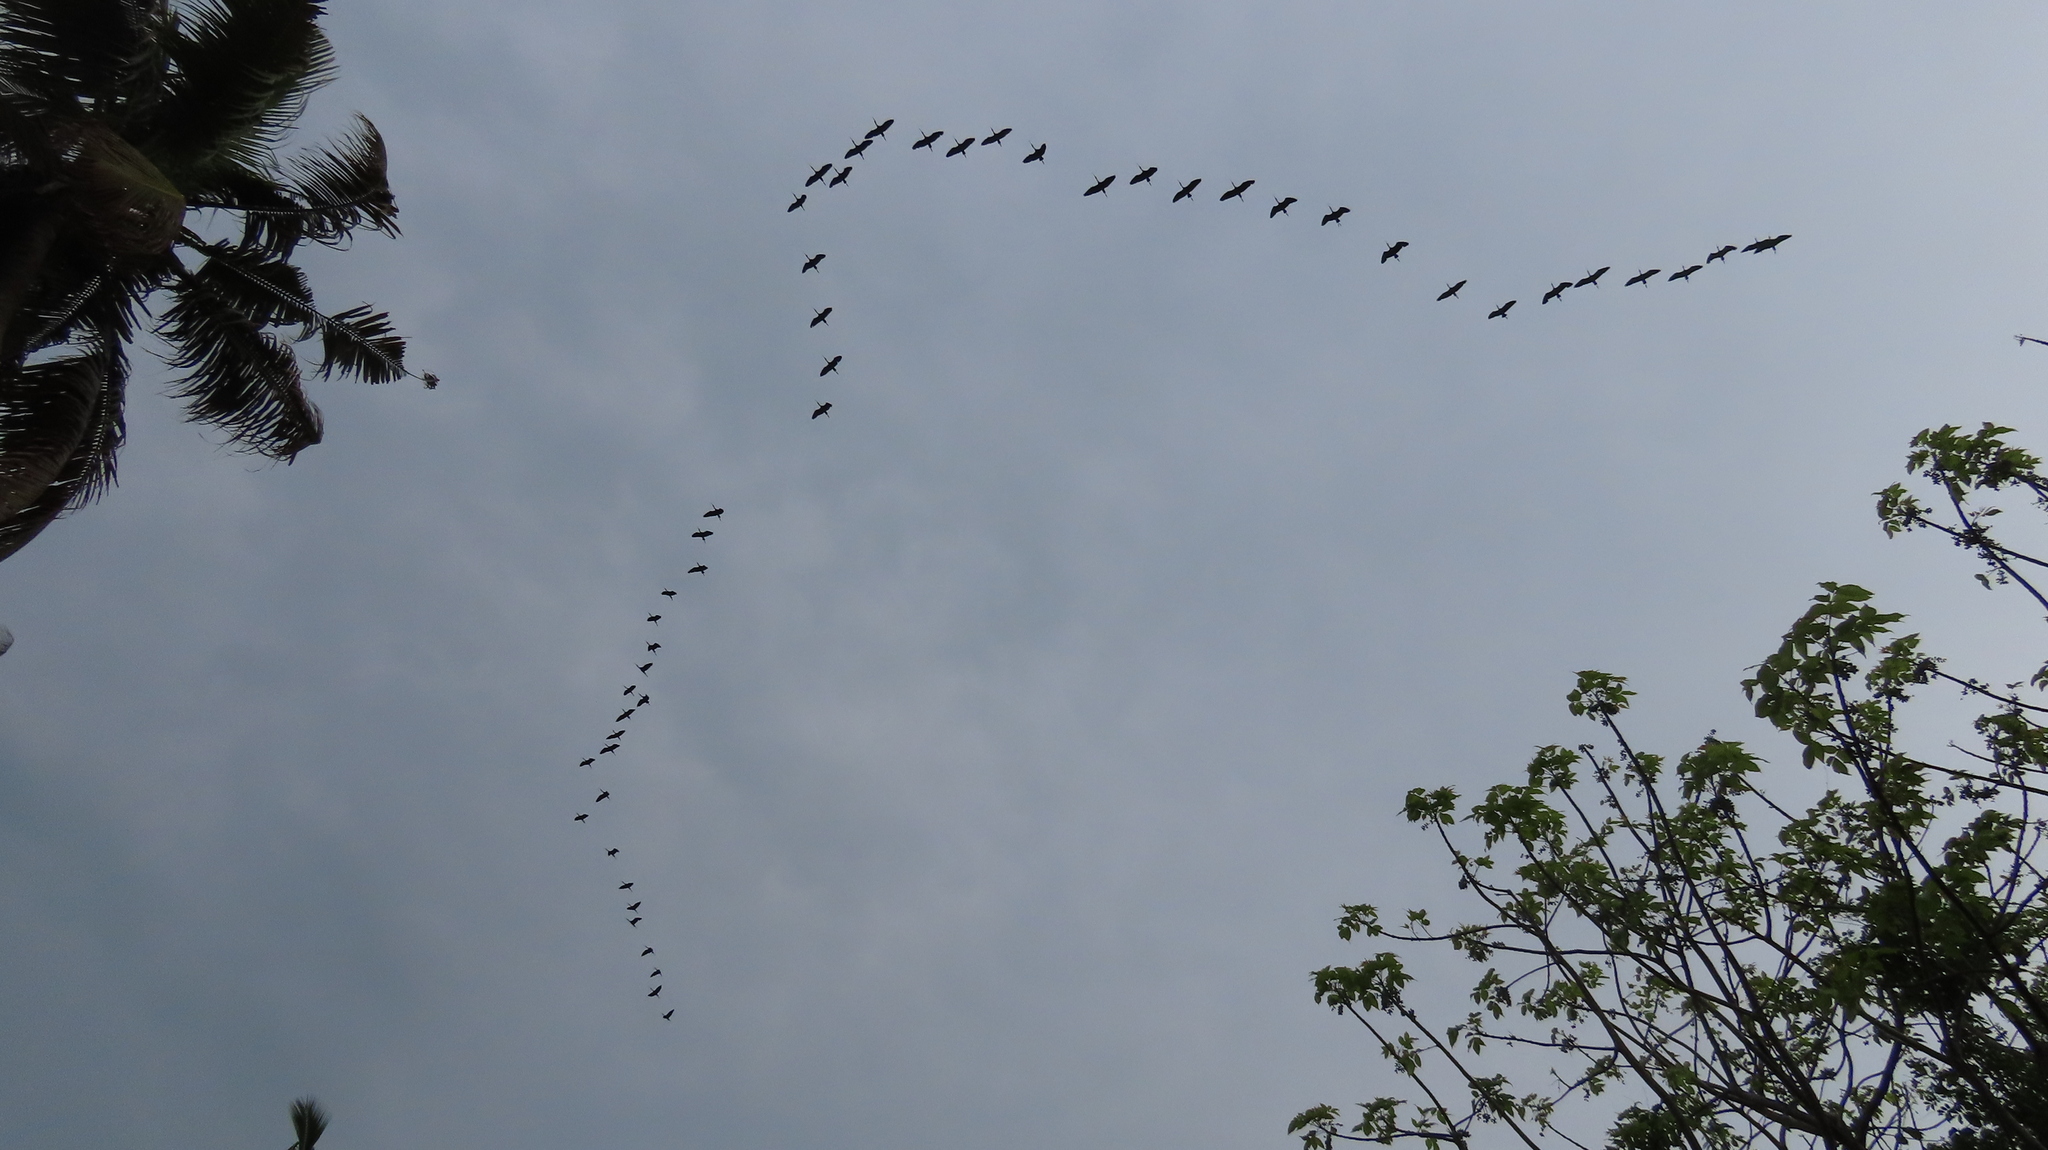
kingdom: Animalia
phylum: Chordata
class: Aves
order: Pelecaniformes
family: Threskiornithidae
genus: Plegadis
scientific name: Plegadis falcinellus
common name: Glossy ibis
